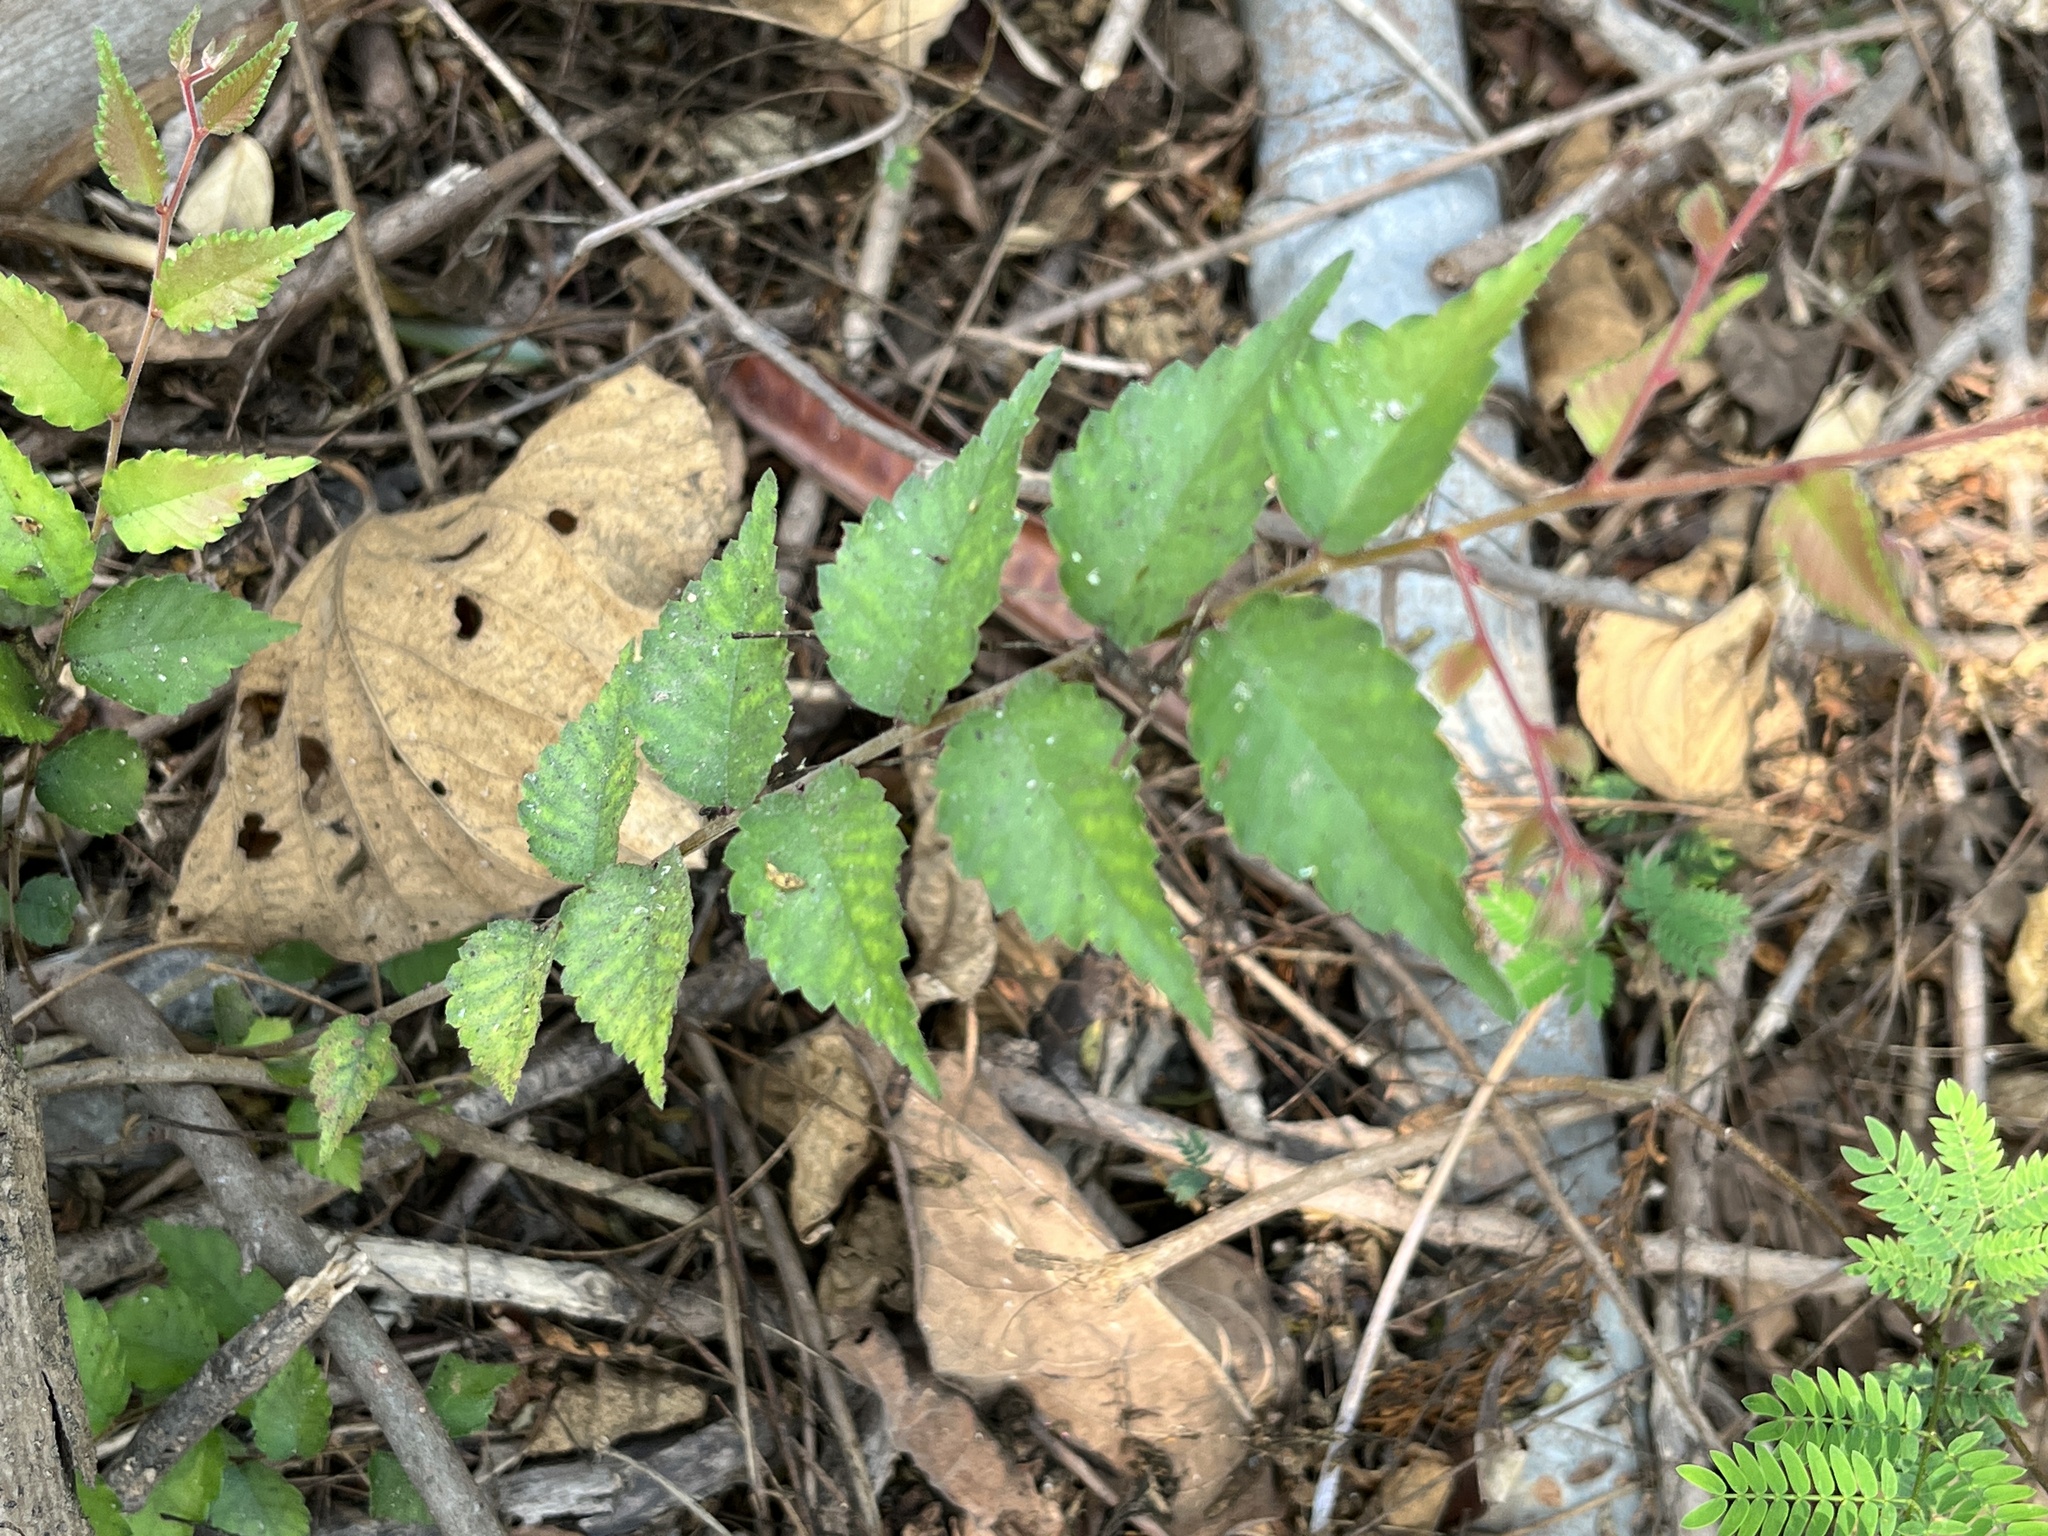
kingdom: Plantae
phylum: Tracheophyta
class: Magnoliopsida
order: Sapindales
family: Anacardiaceae
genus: Rhus
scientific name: Rhus chinensis
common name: Chinese gall
